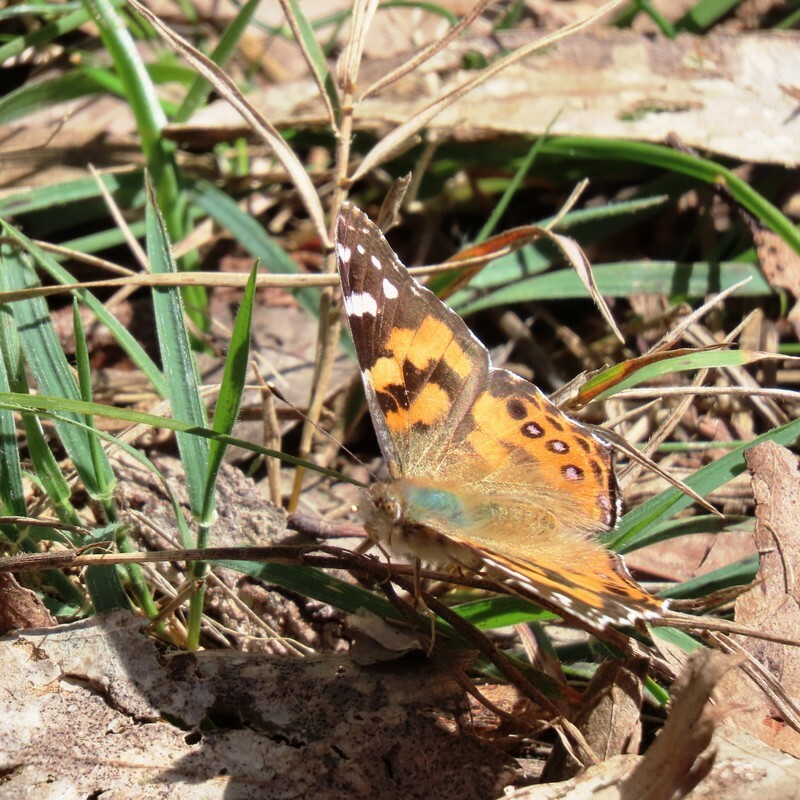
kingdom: Animalia
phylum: Arthropoda
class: Insecta
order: Lepidoptera
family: Nymphalidae
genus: Vanessa
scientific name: Vanessa kershawi
